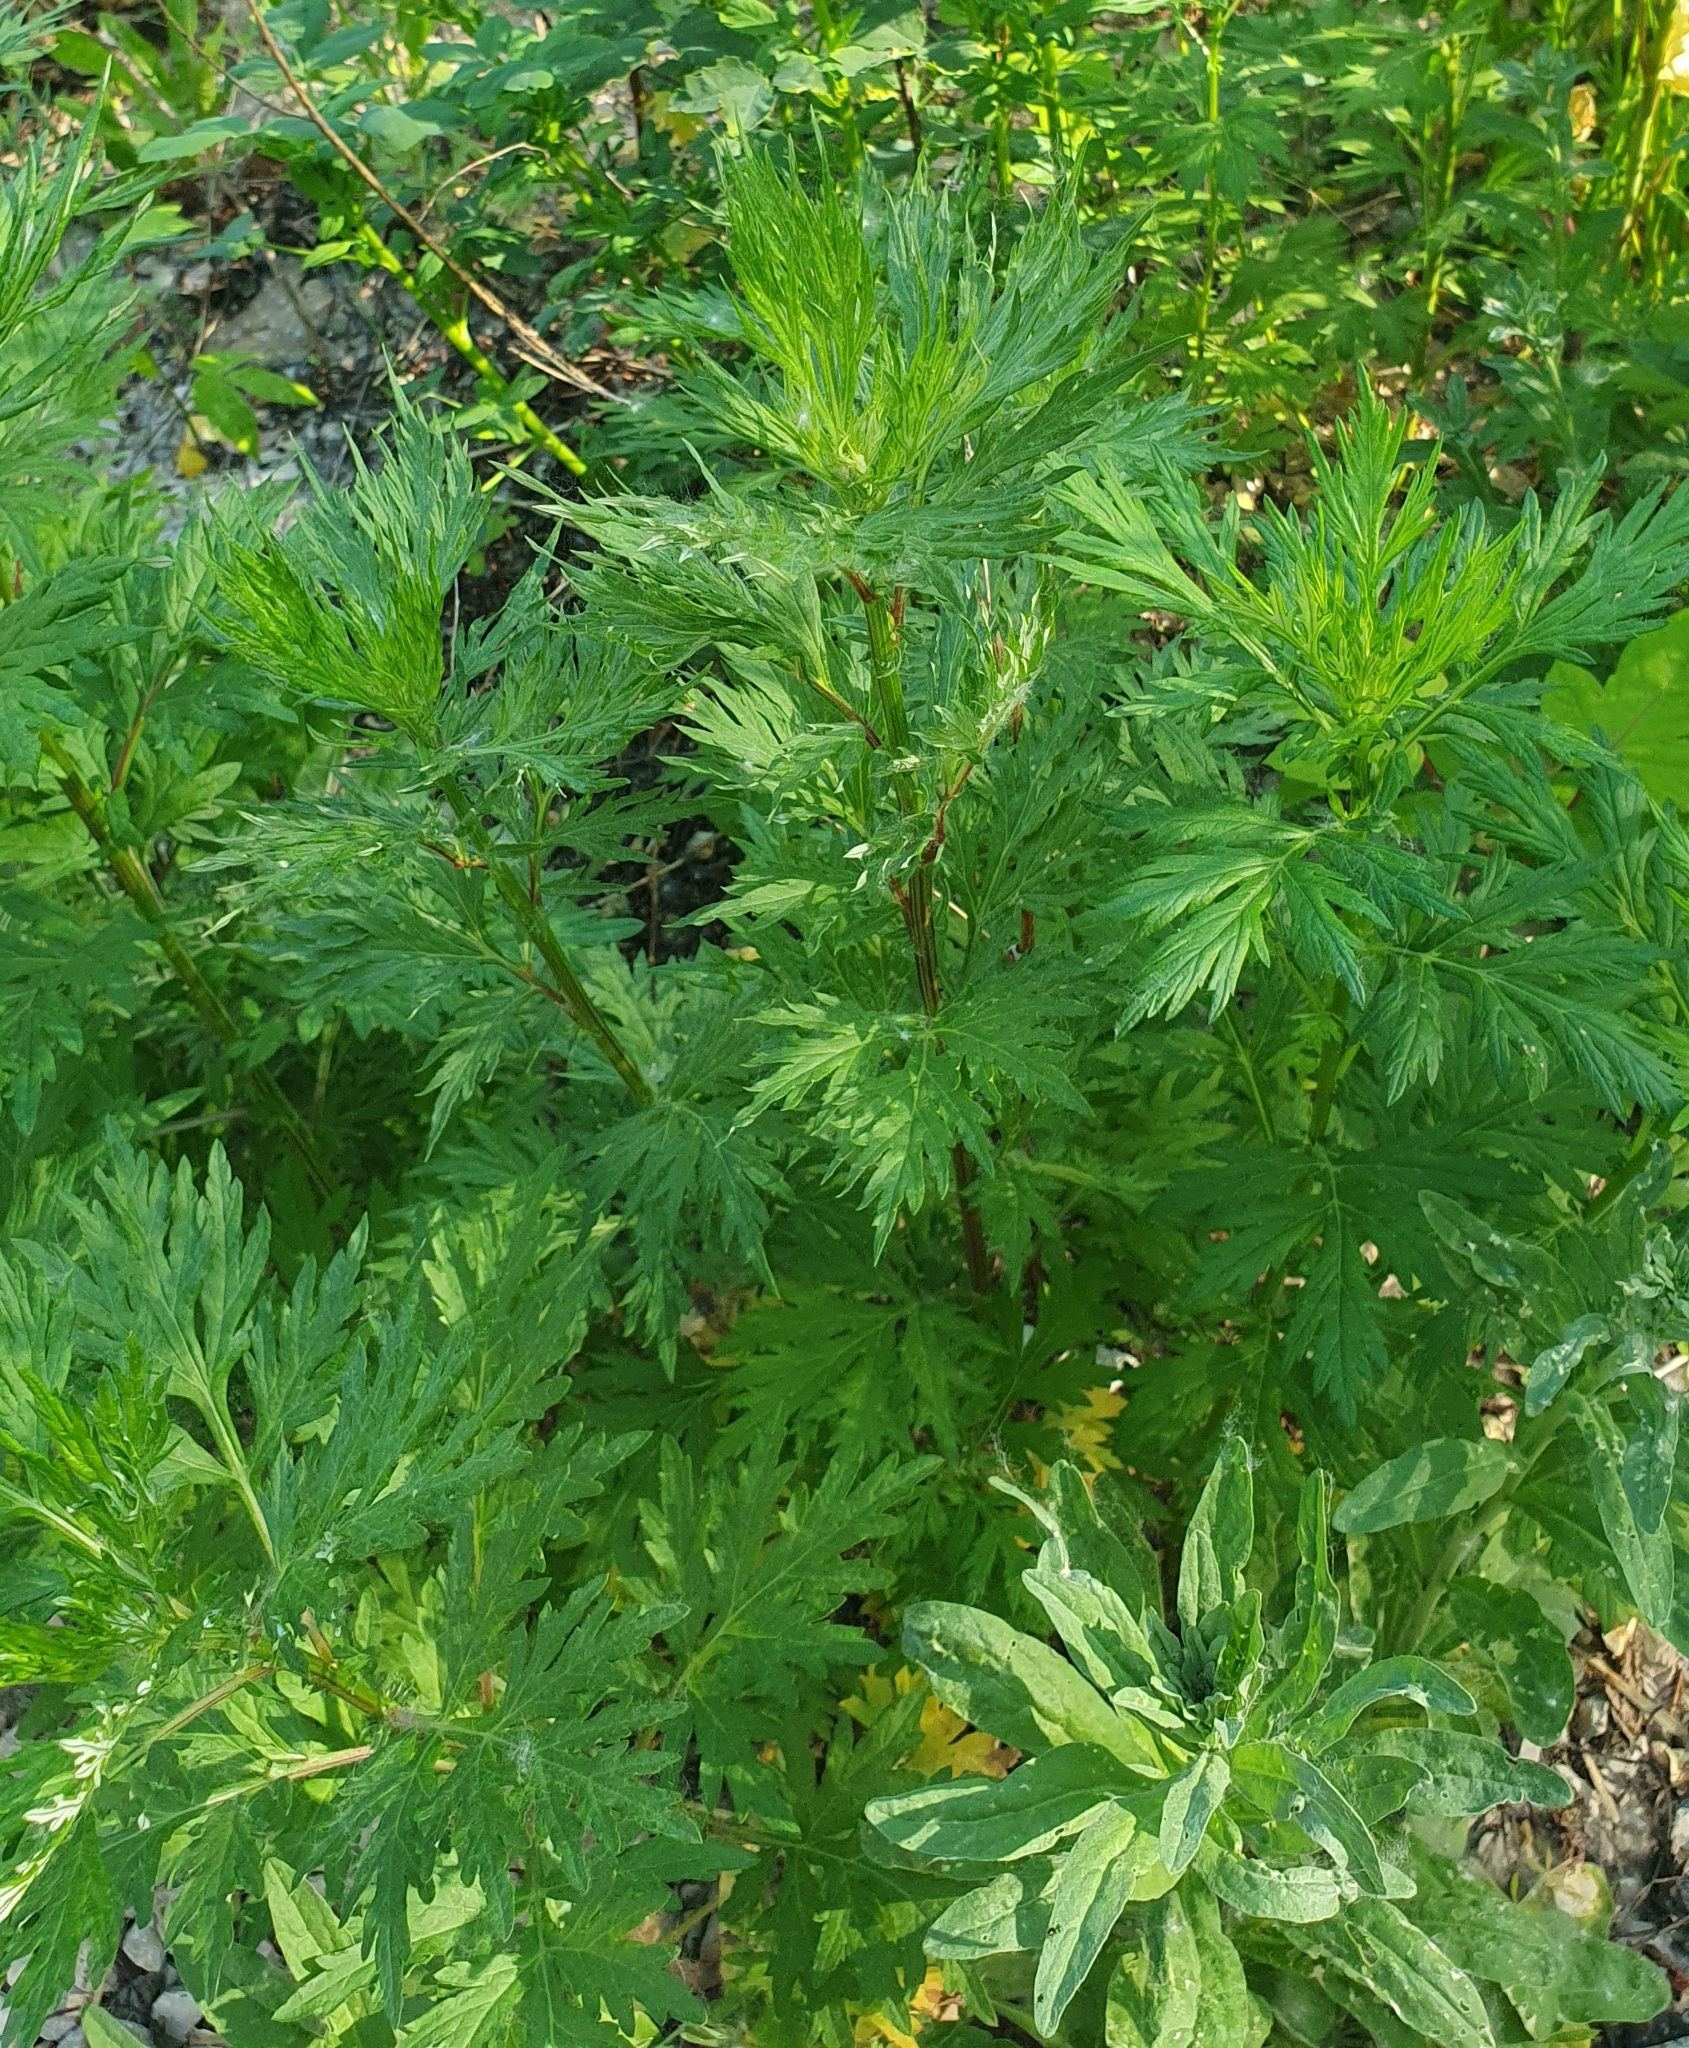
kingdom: Plantae
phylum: Tracheophyta
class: Magnoliopsida
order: Asterales
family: Asteraceae
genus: Artemisia
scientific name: Artemisia vulgaris
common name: Mugwort
